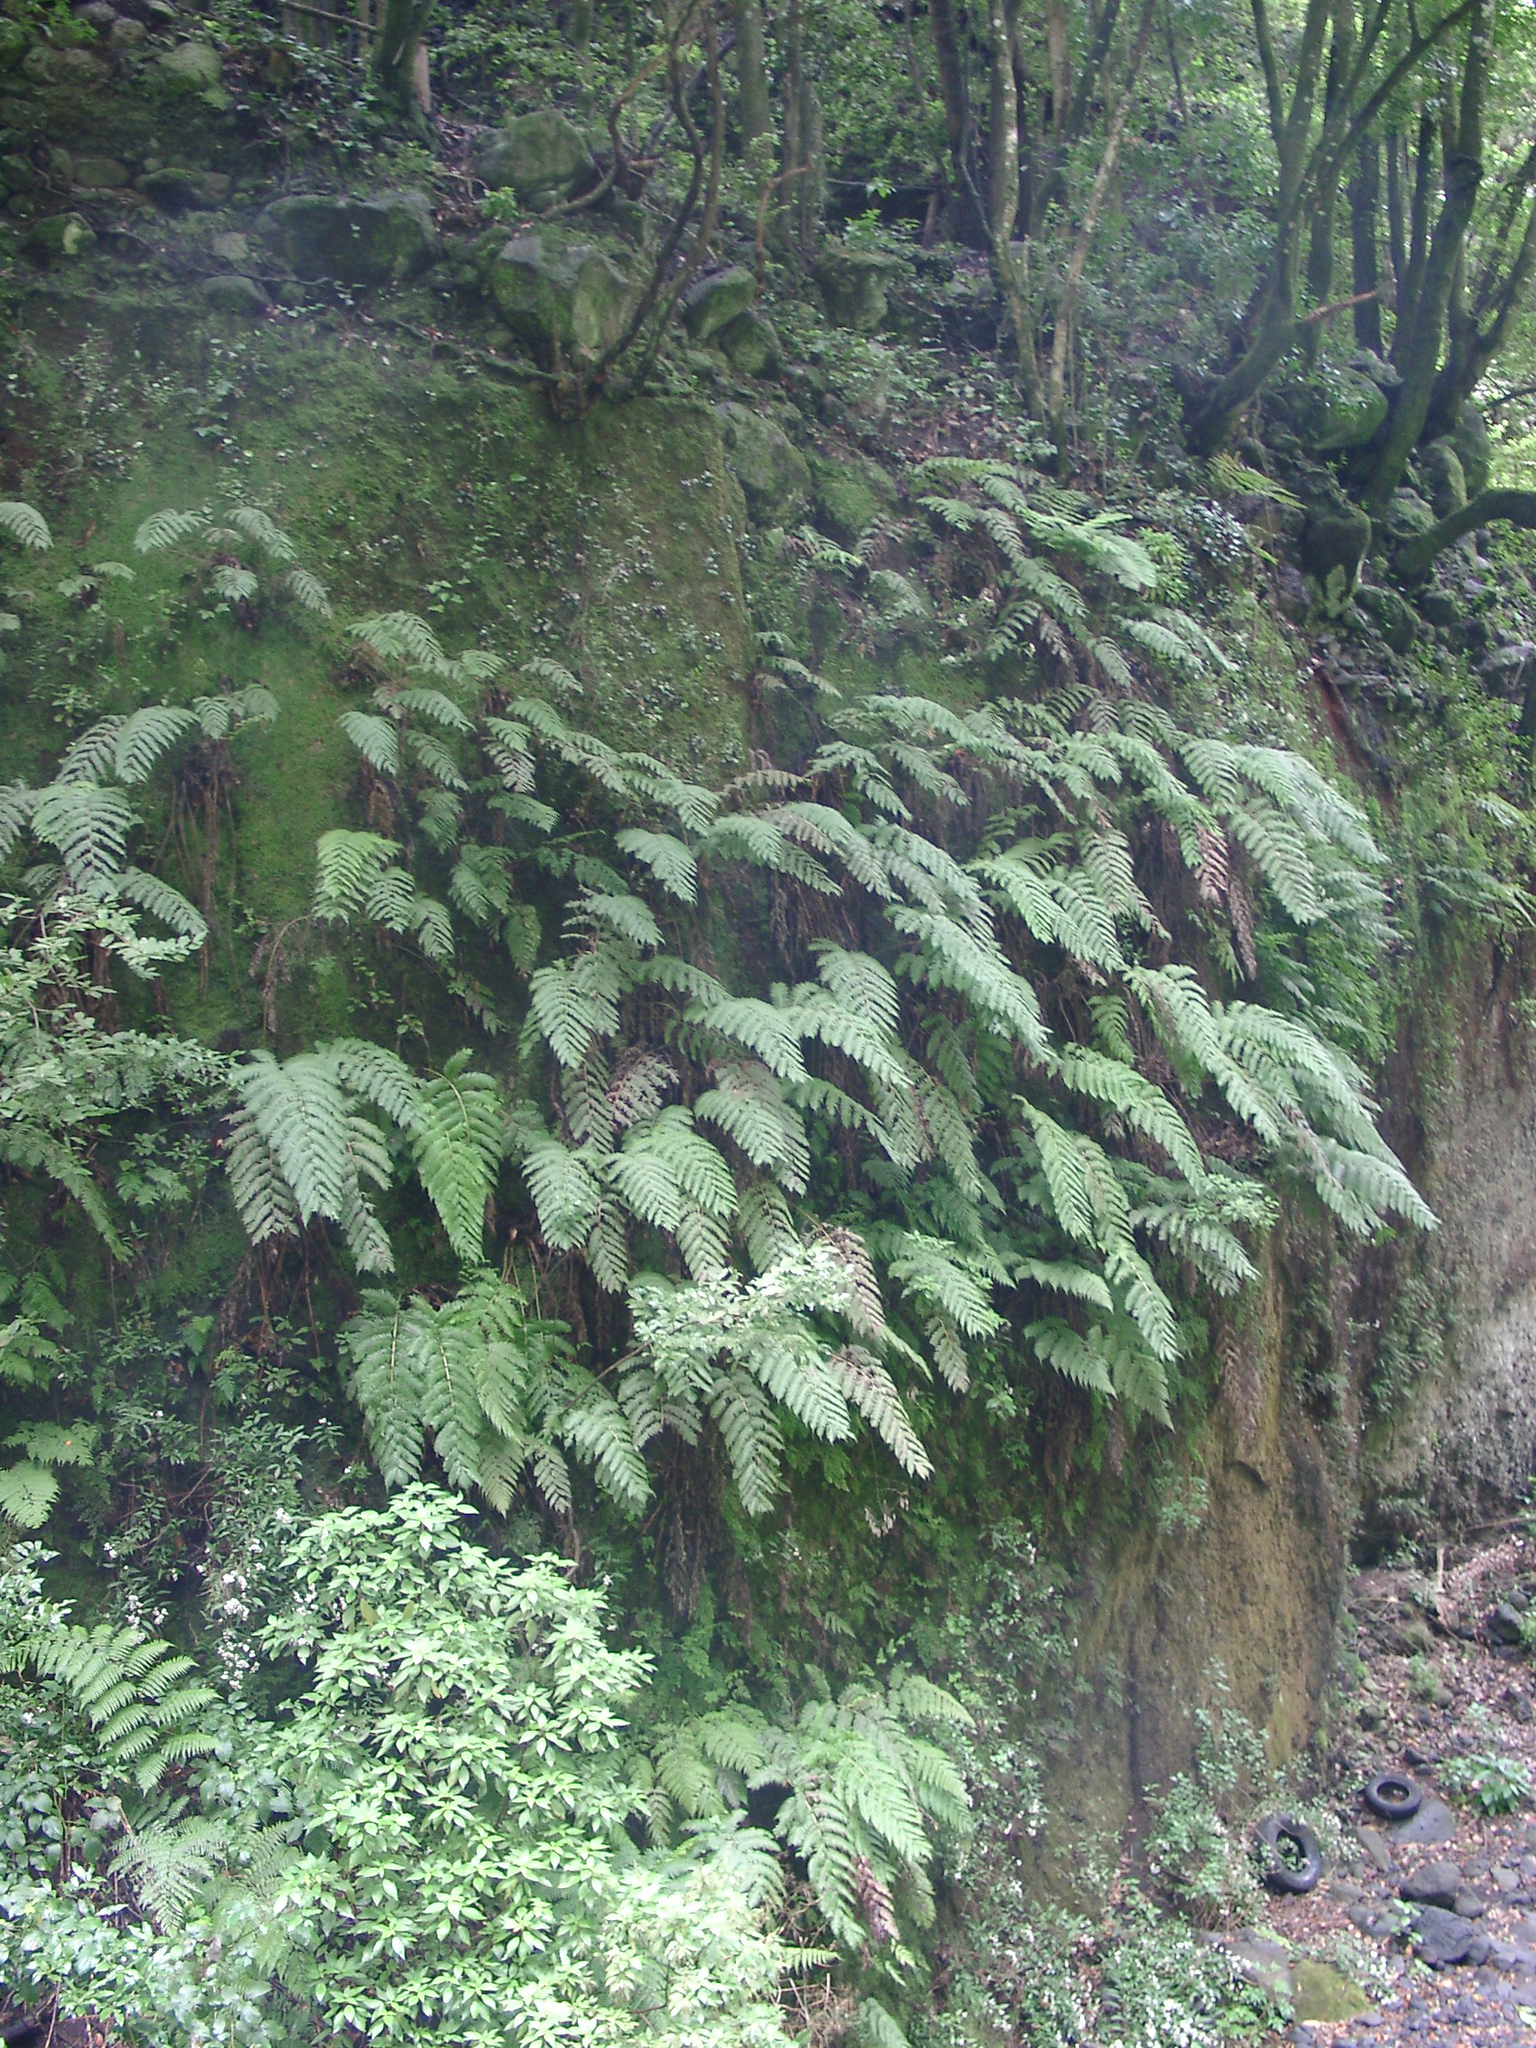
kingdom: Plantae
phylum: Tracheophyta
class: Polypodiopsida
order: Polypodiales
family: Blechnaceae
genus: Woodwardia
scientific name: Woodwardia radicans
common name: Rooting chainfern
